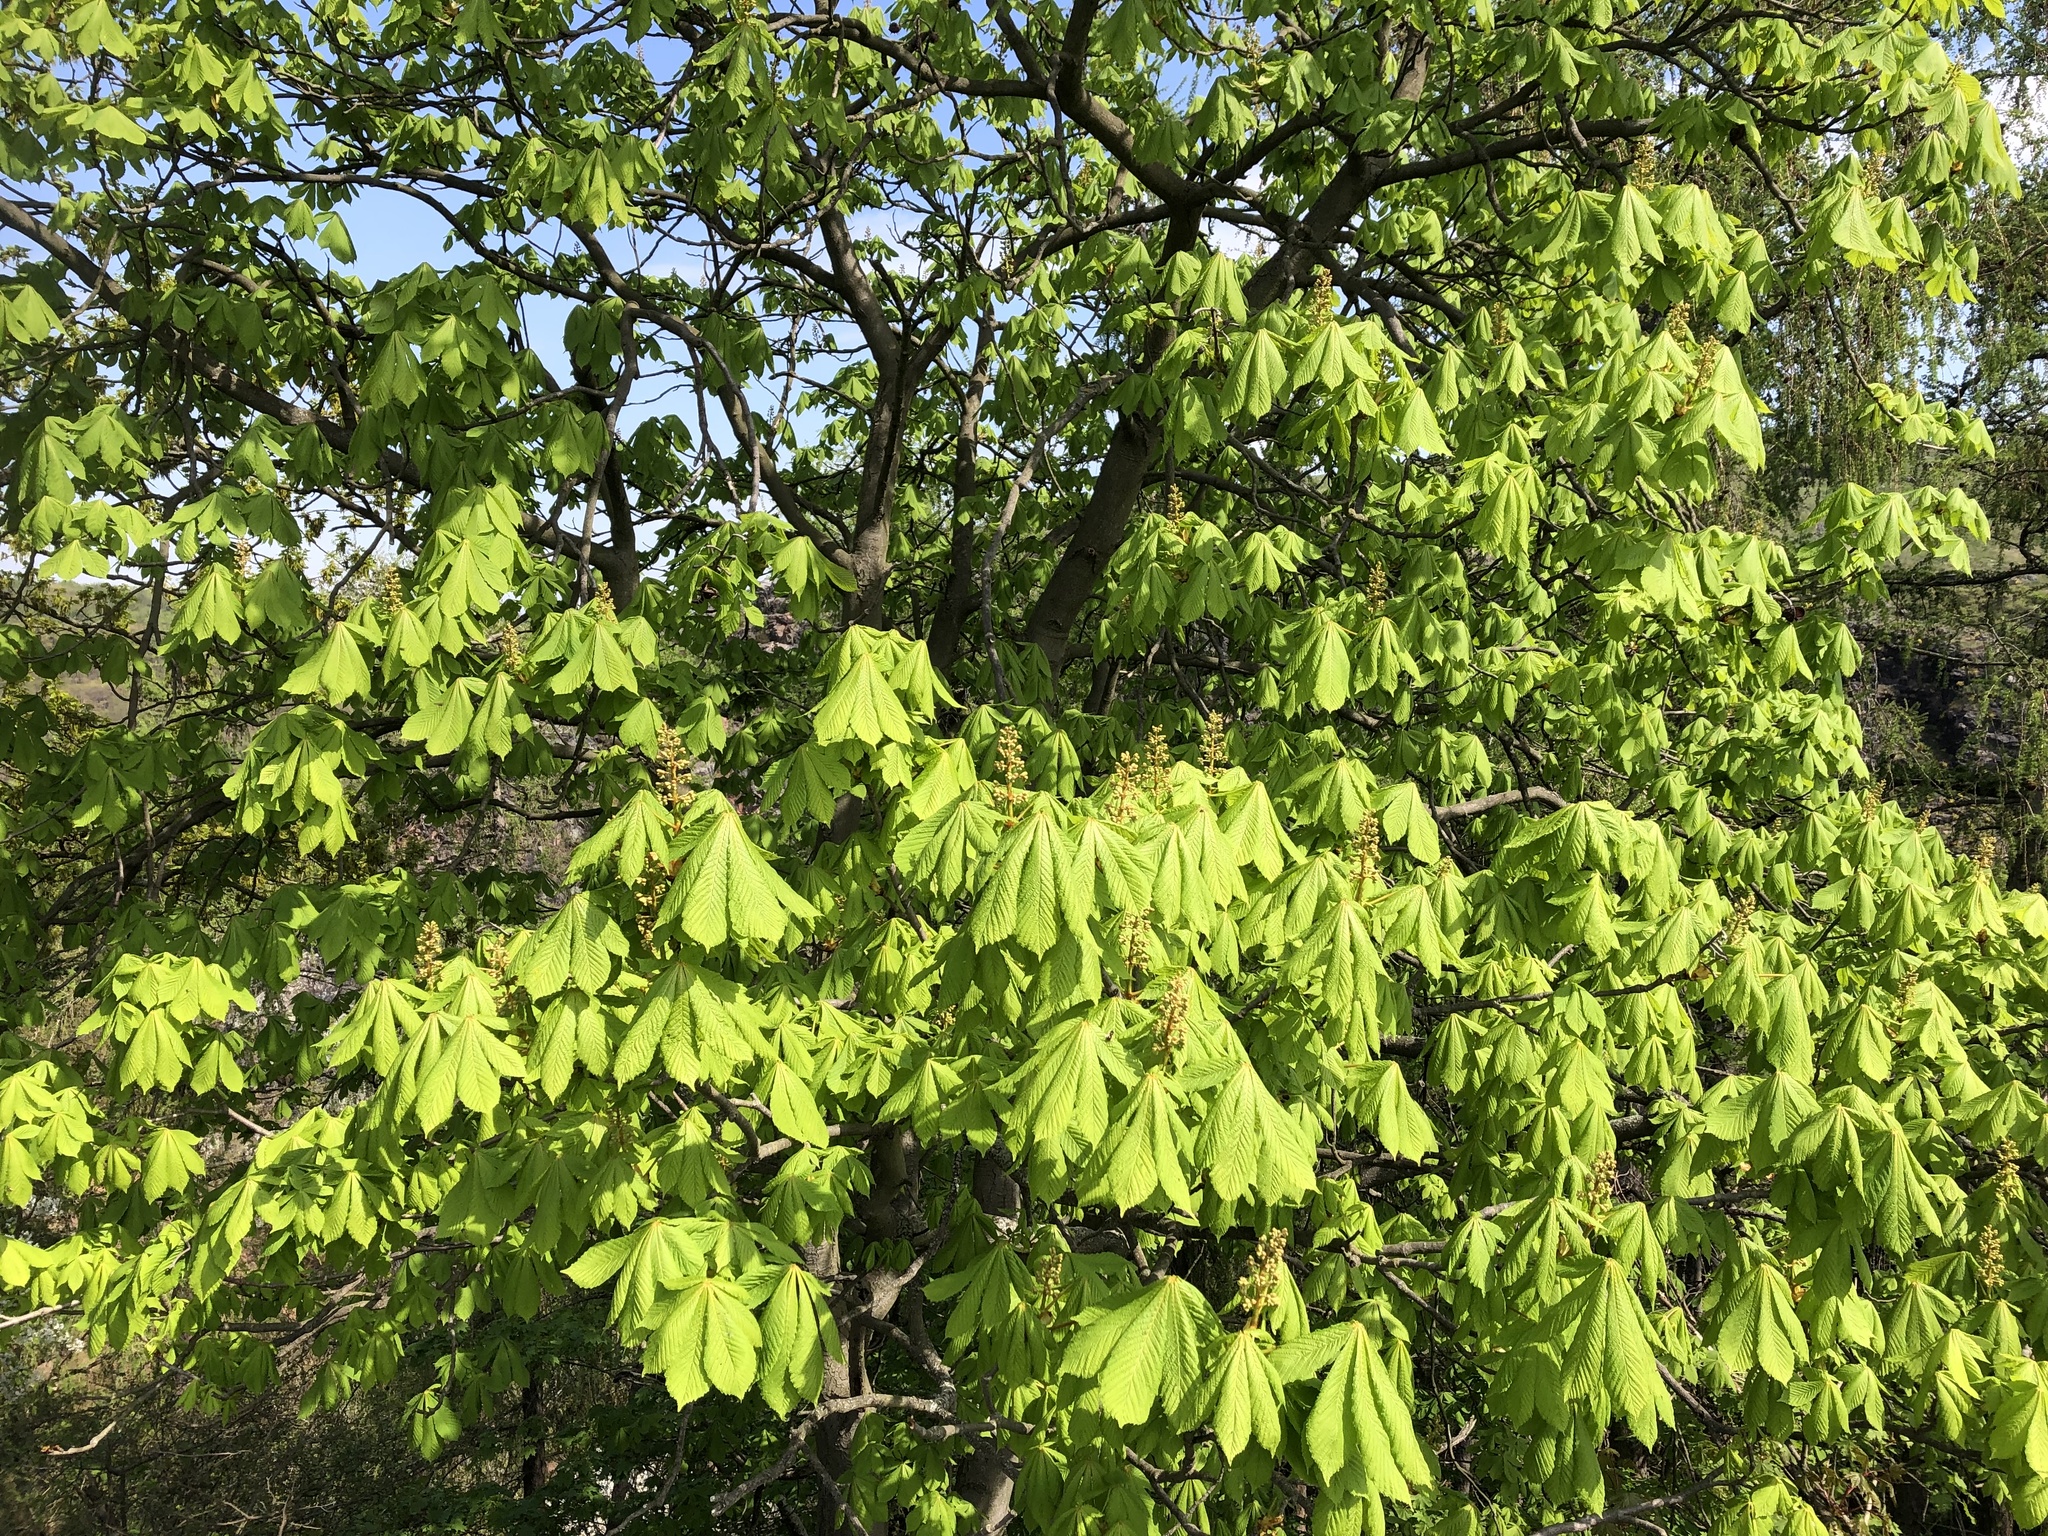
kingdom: Plantae
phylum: Tracheophyta
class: Magnoliopsida
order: Sapindales
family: Sapindaceae
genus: Aesculus
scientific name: Aesculus hippocastanum
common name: Horse-chestnut
